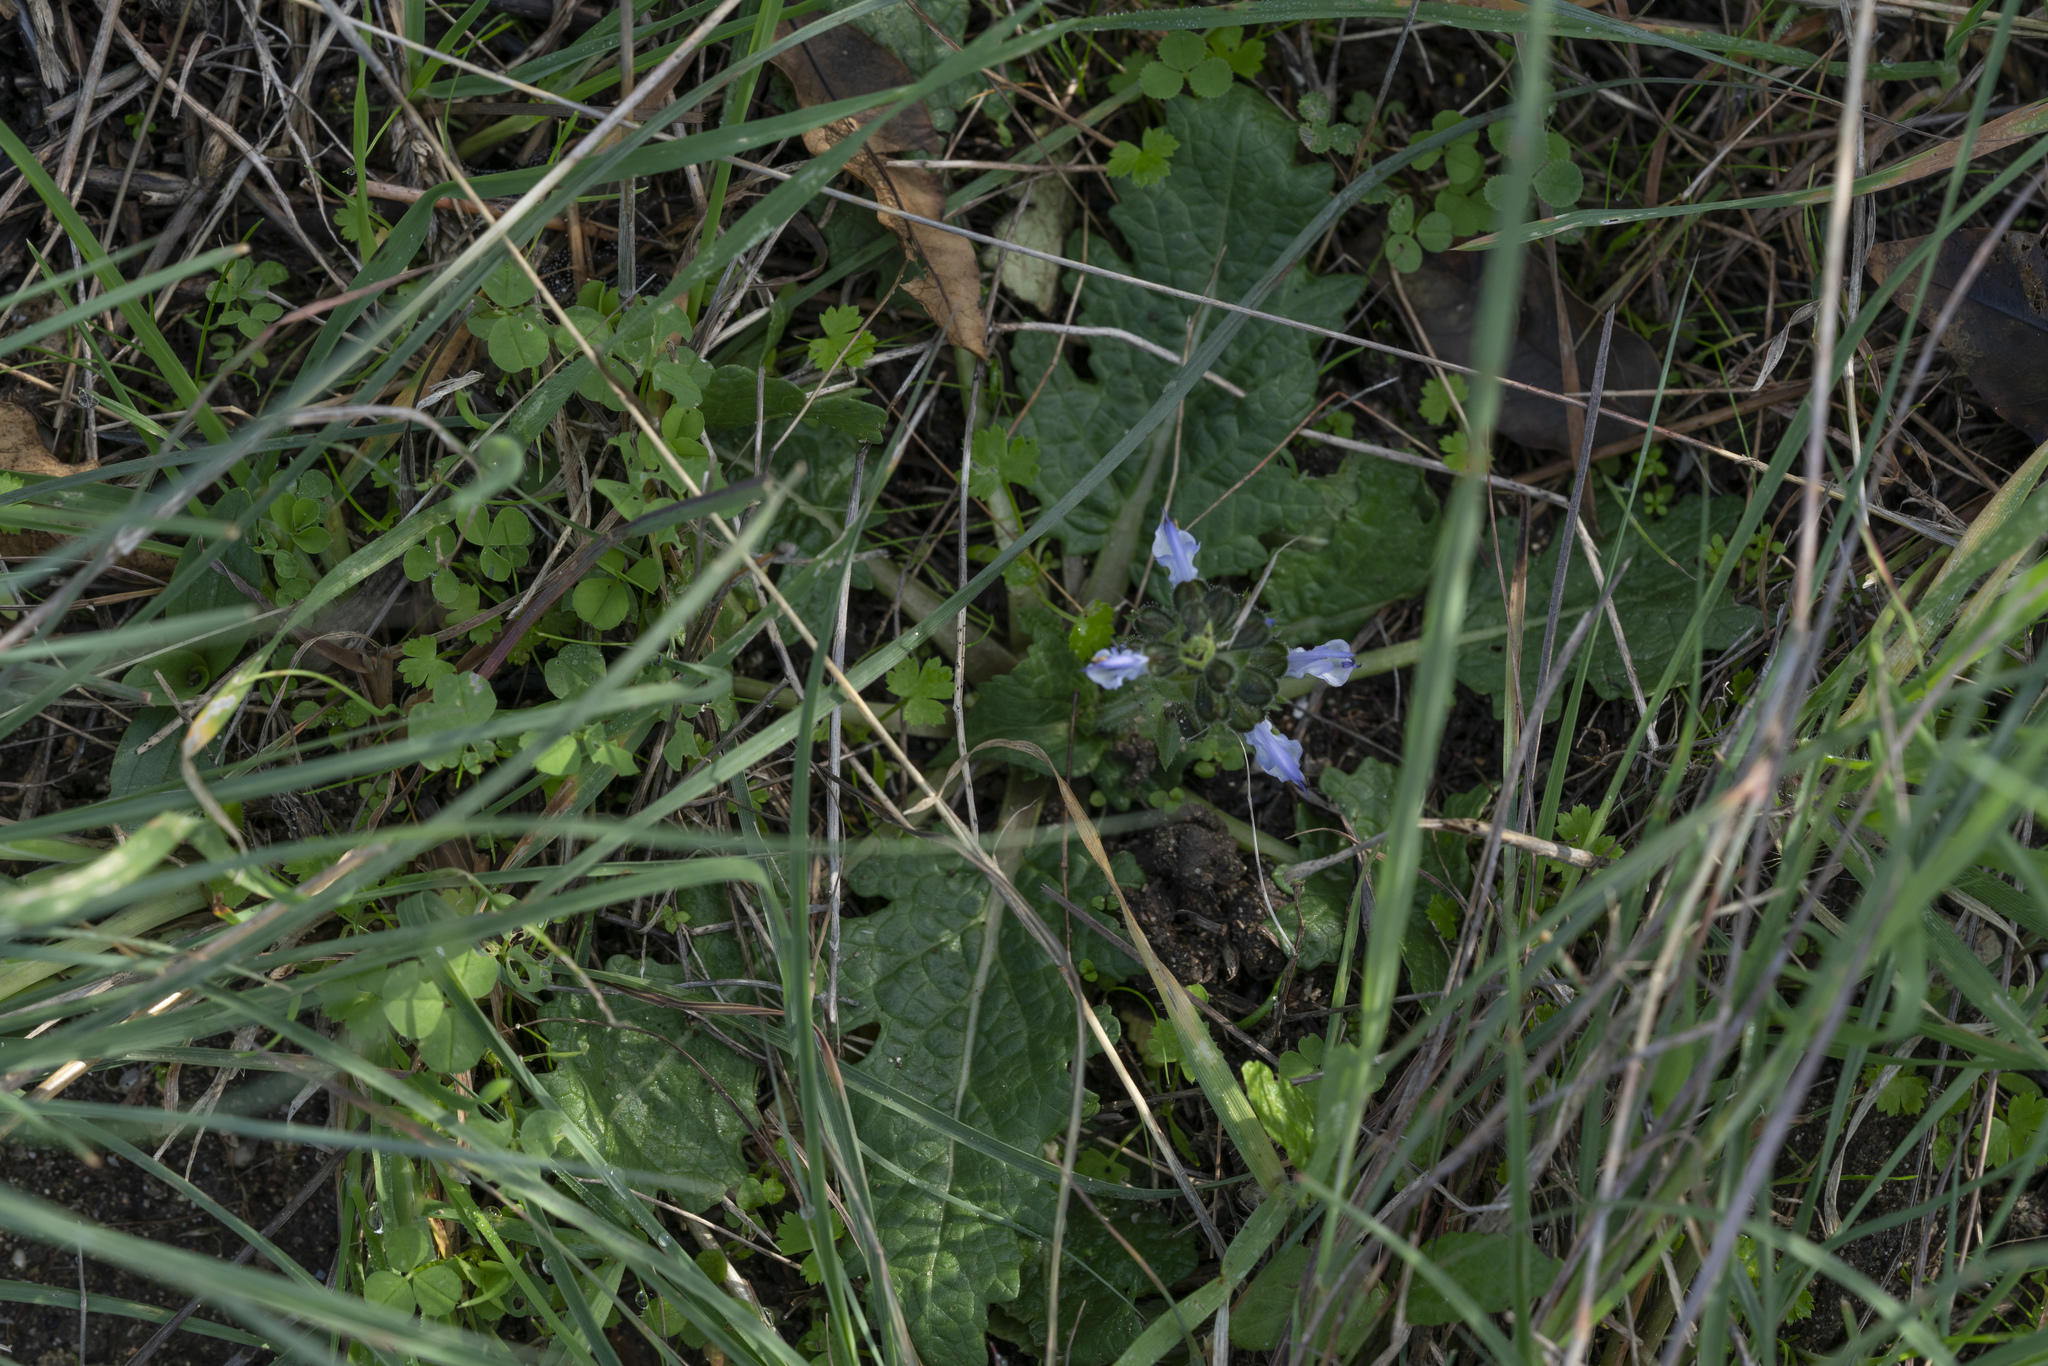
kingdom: Plantae
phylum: Tracheophyta
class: Magnoliopsida
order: Lamiales
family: Lamiaceae
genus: Salvia
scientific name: Salvia clandestina
